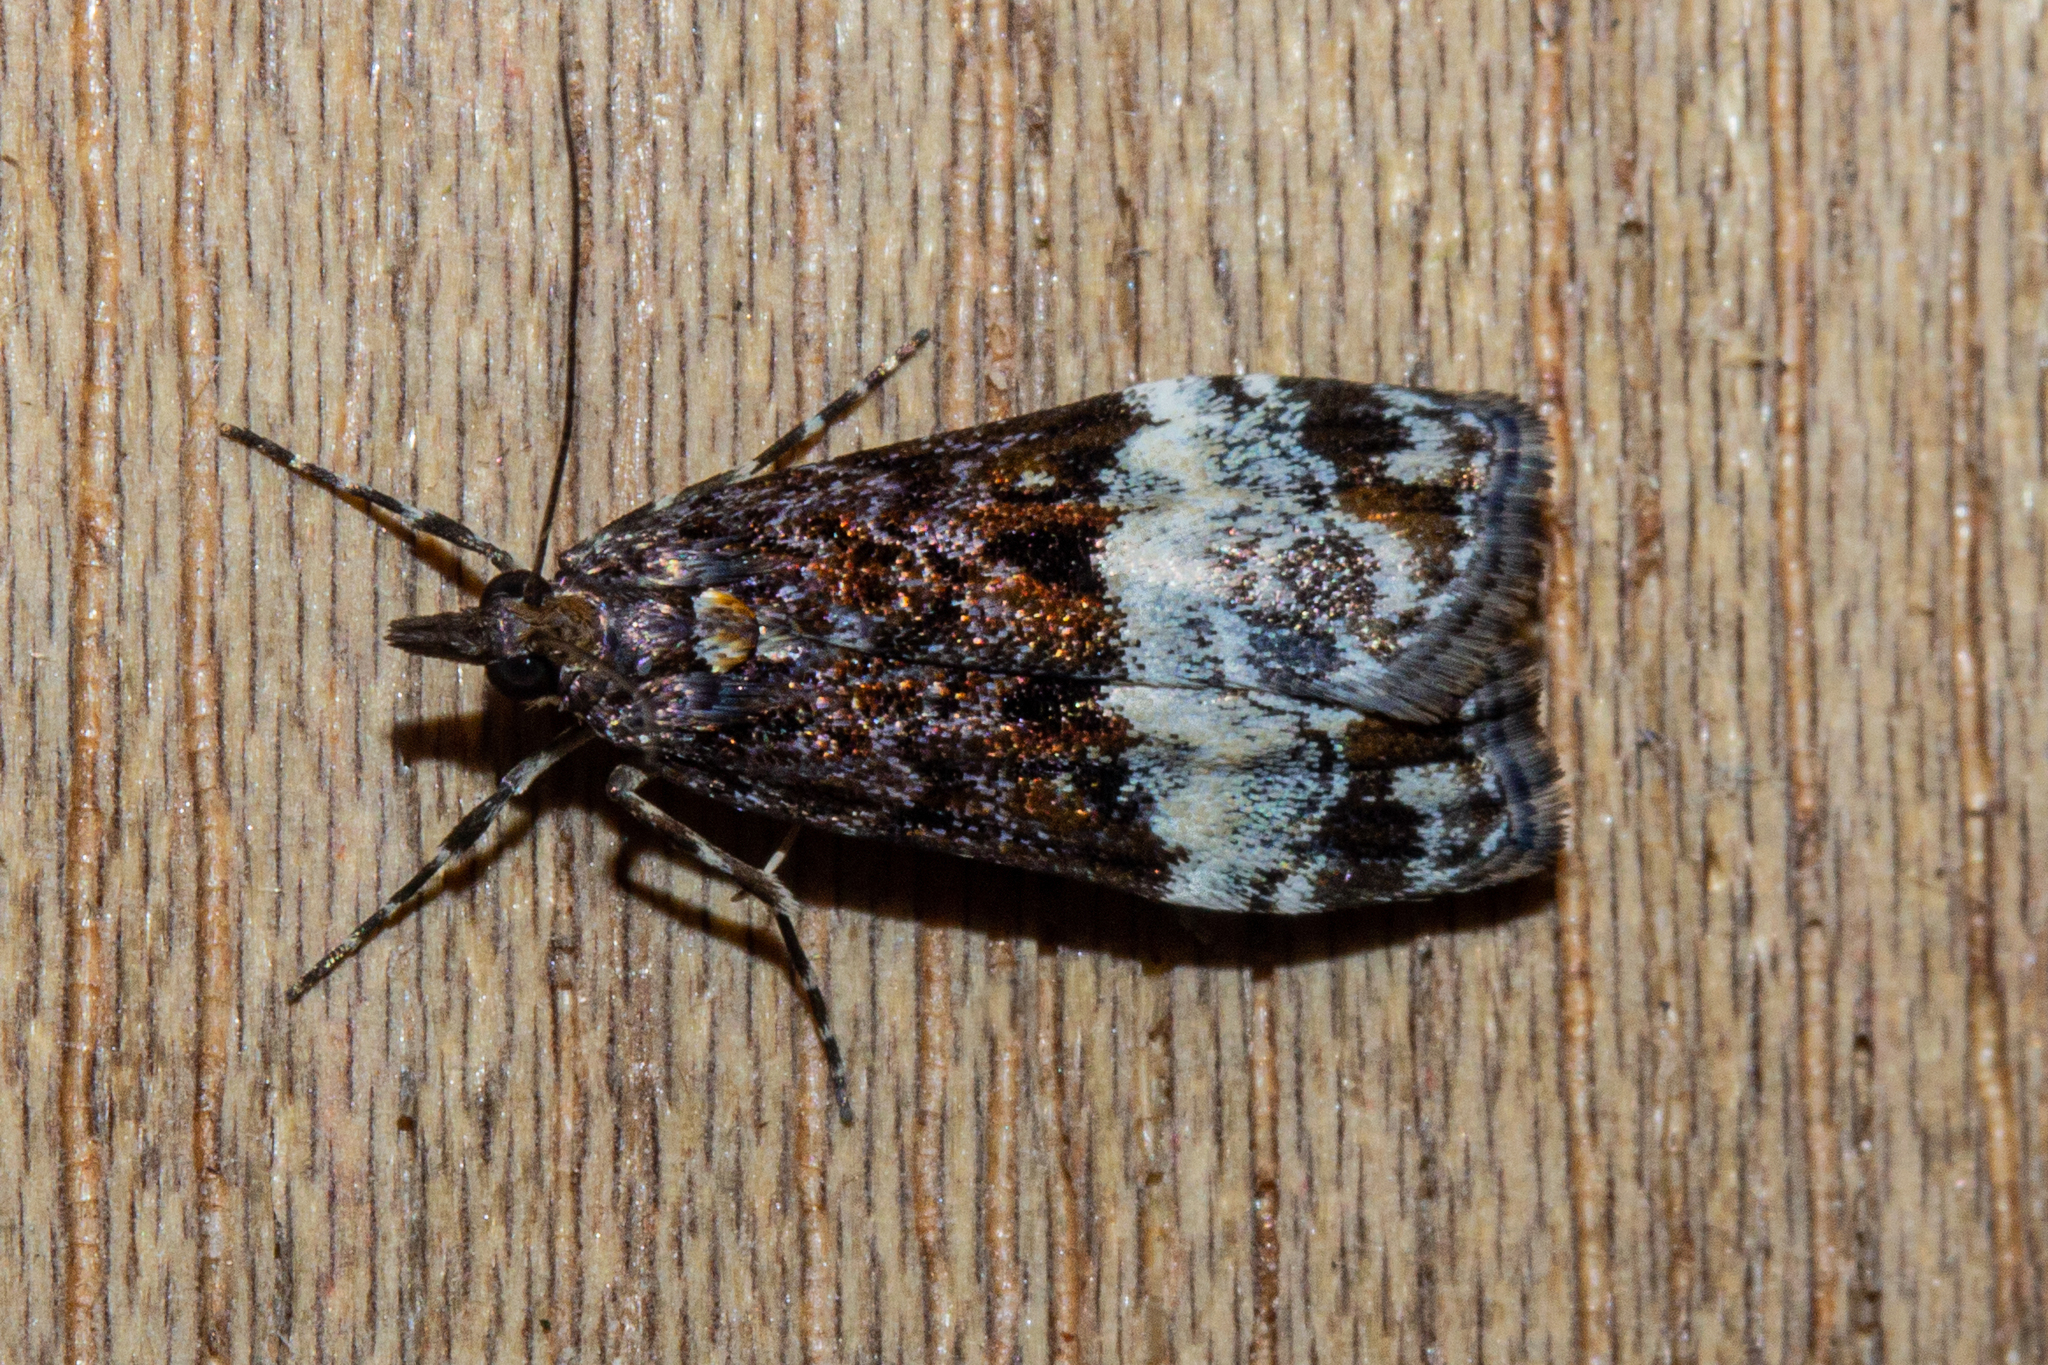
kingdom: Animalia
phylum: Arthropoda
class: Insecta
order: Lepidoptera
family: Crambidae
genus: Scoparia
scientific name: Scoparia minusculalis
